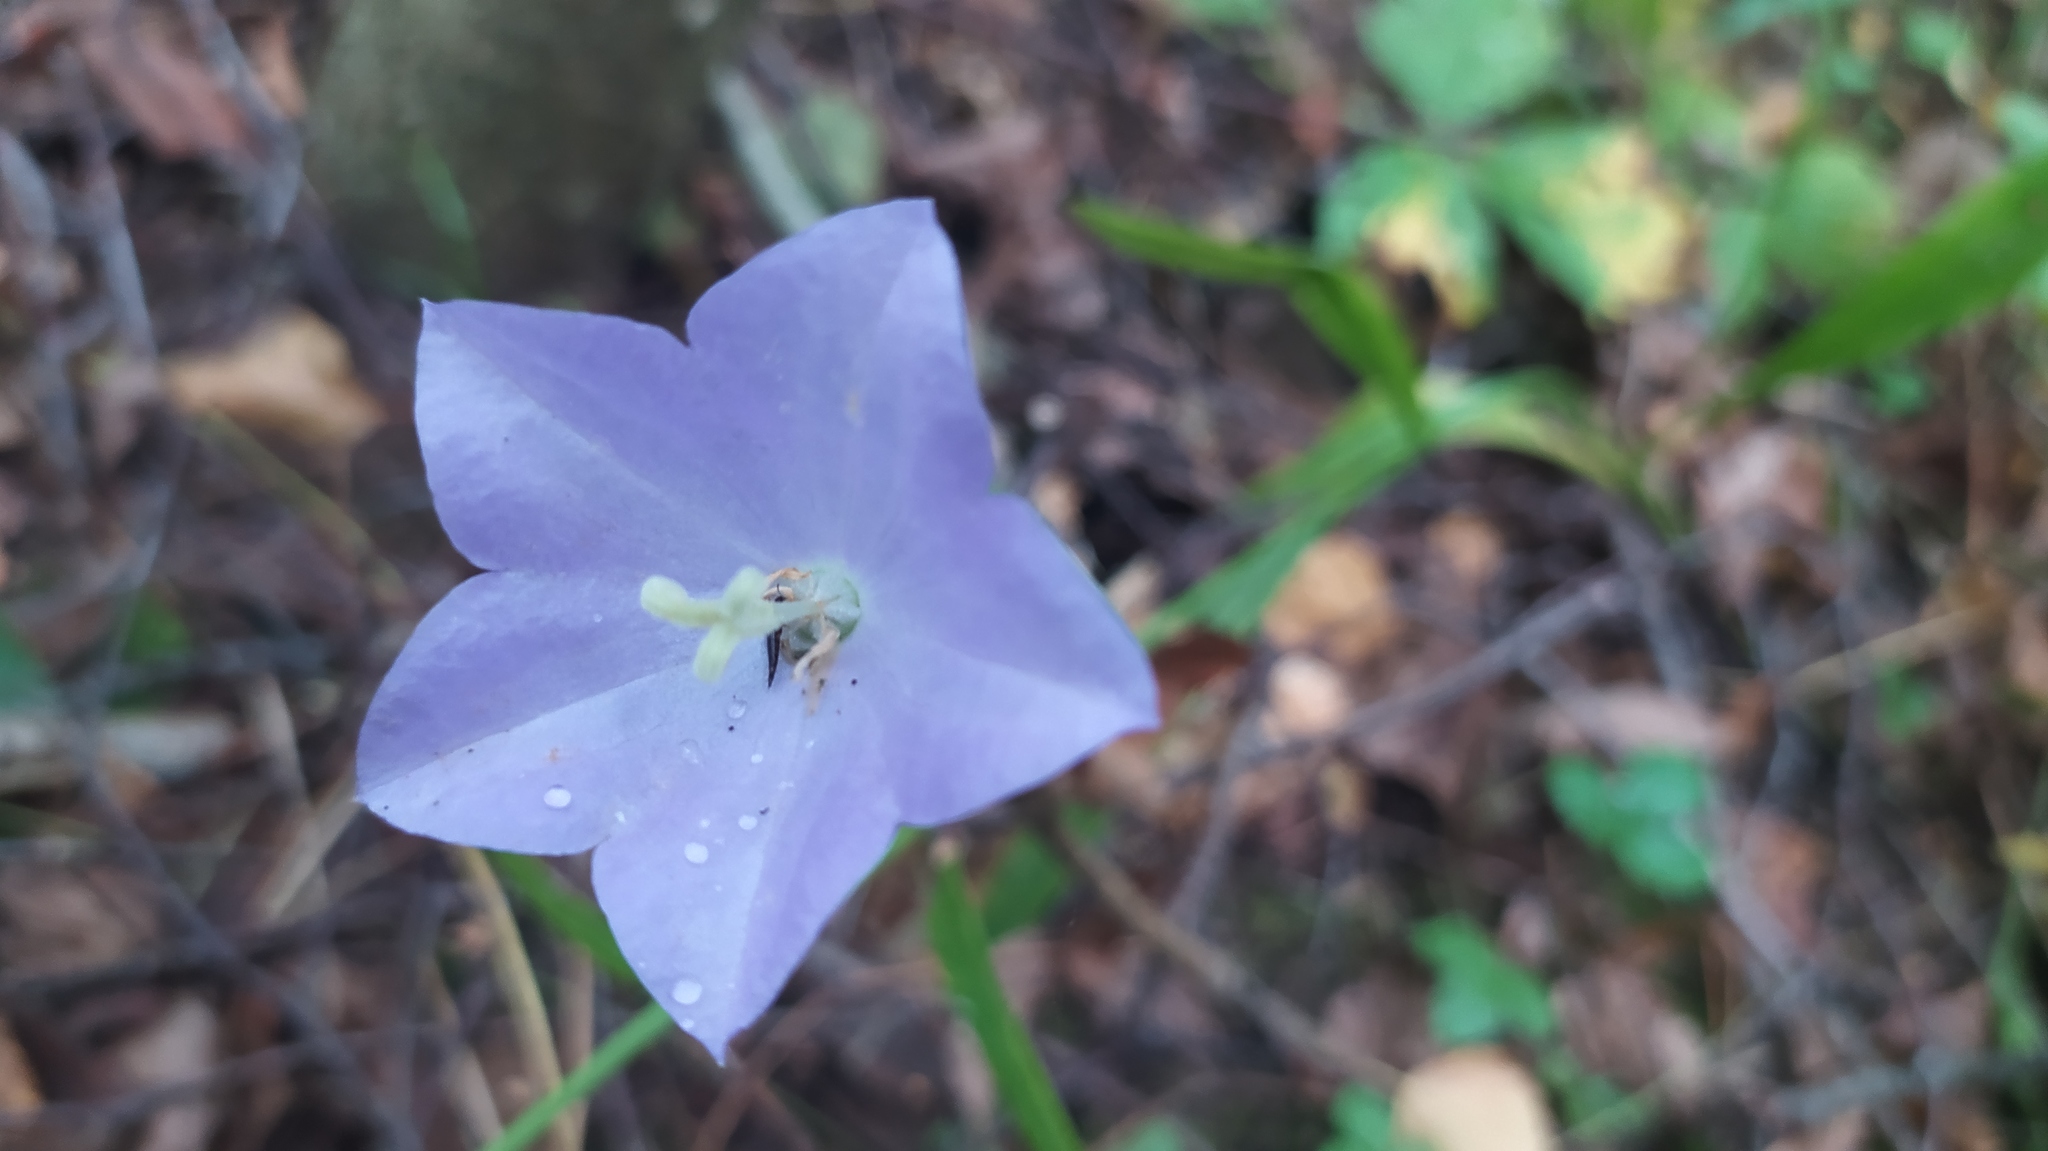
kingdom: Plantae
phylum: Tracheophyta
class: Magnoliopsida
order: Asterales
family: Campanulaceae
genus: Campanula
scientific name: Campanula persicifolia
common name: Peach-leaved bellflower
